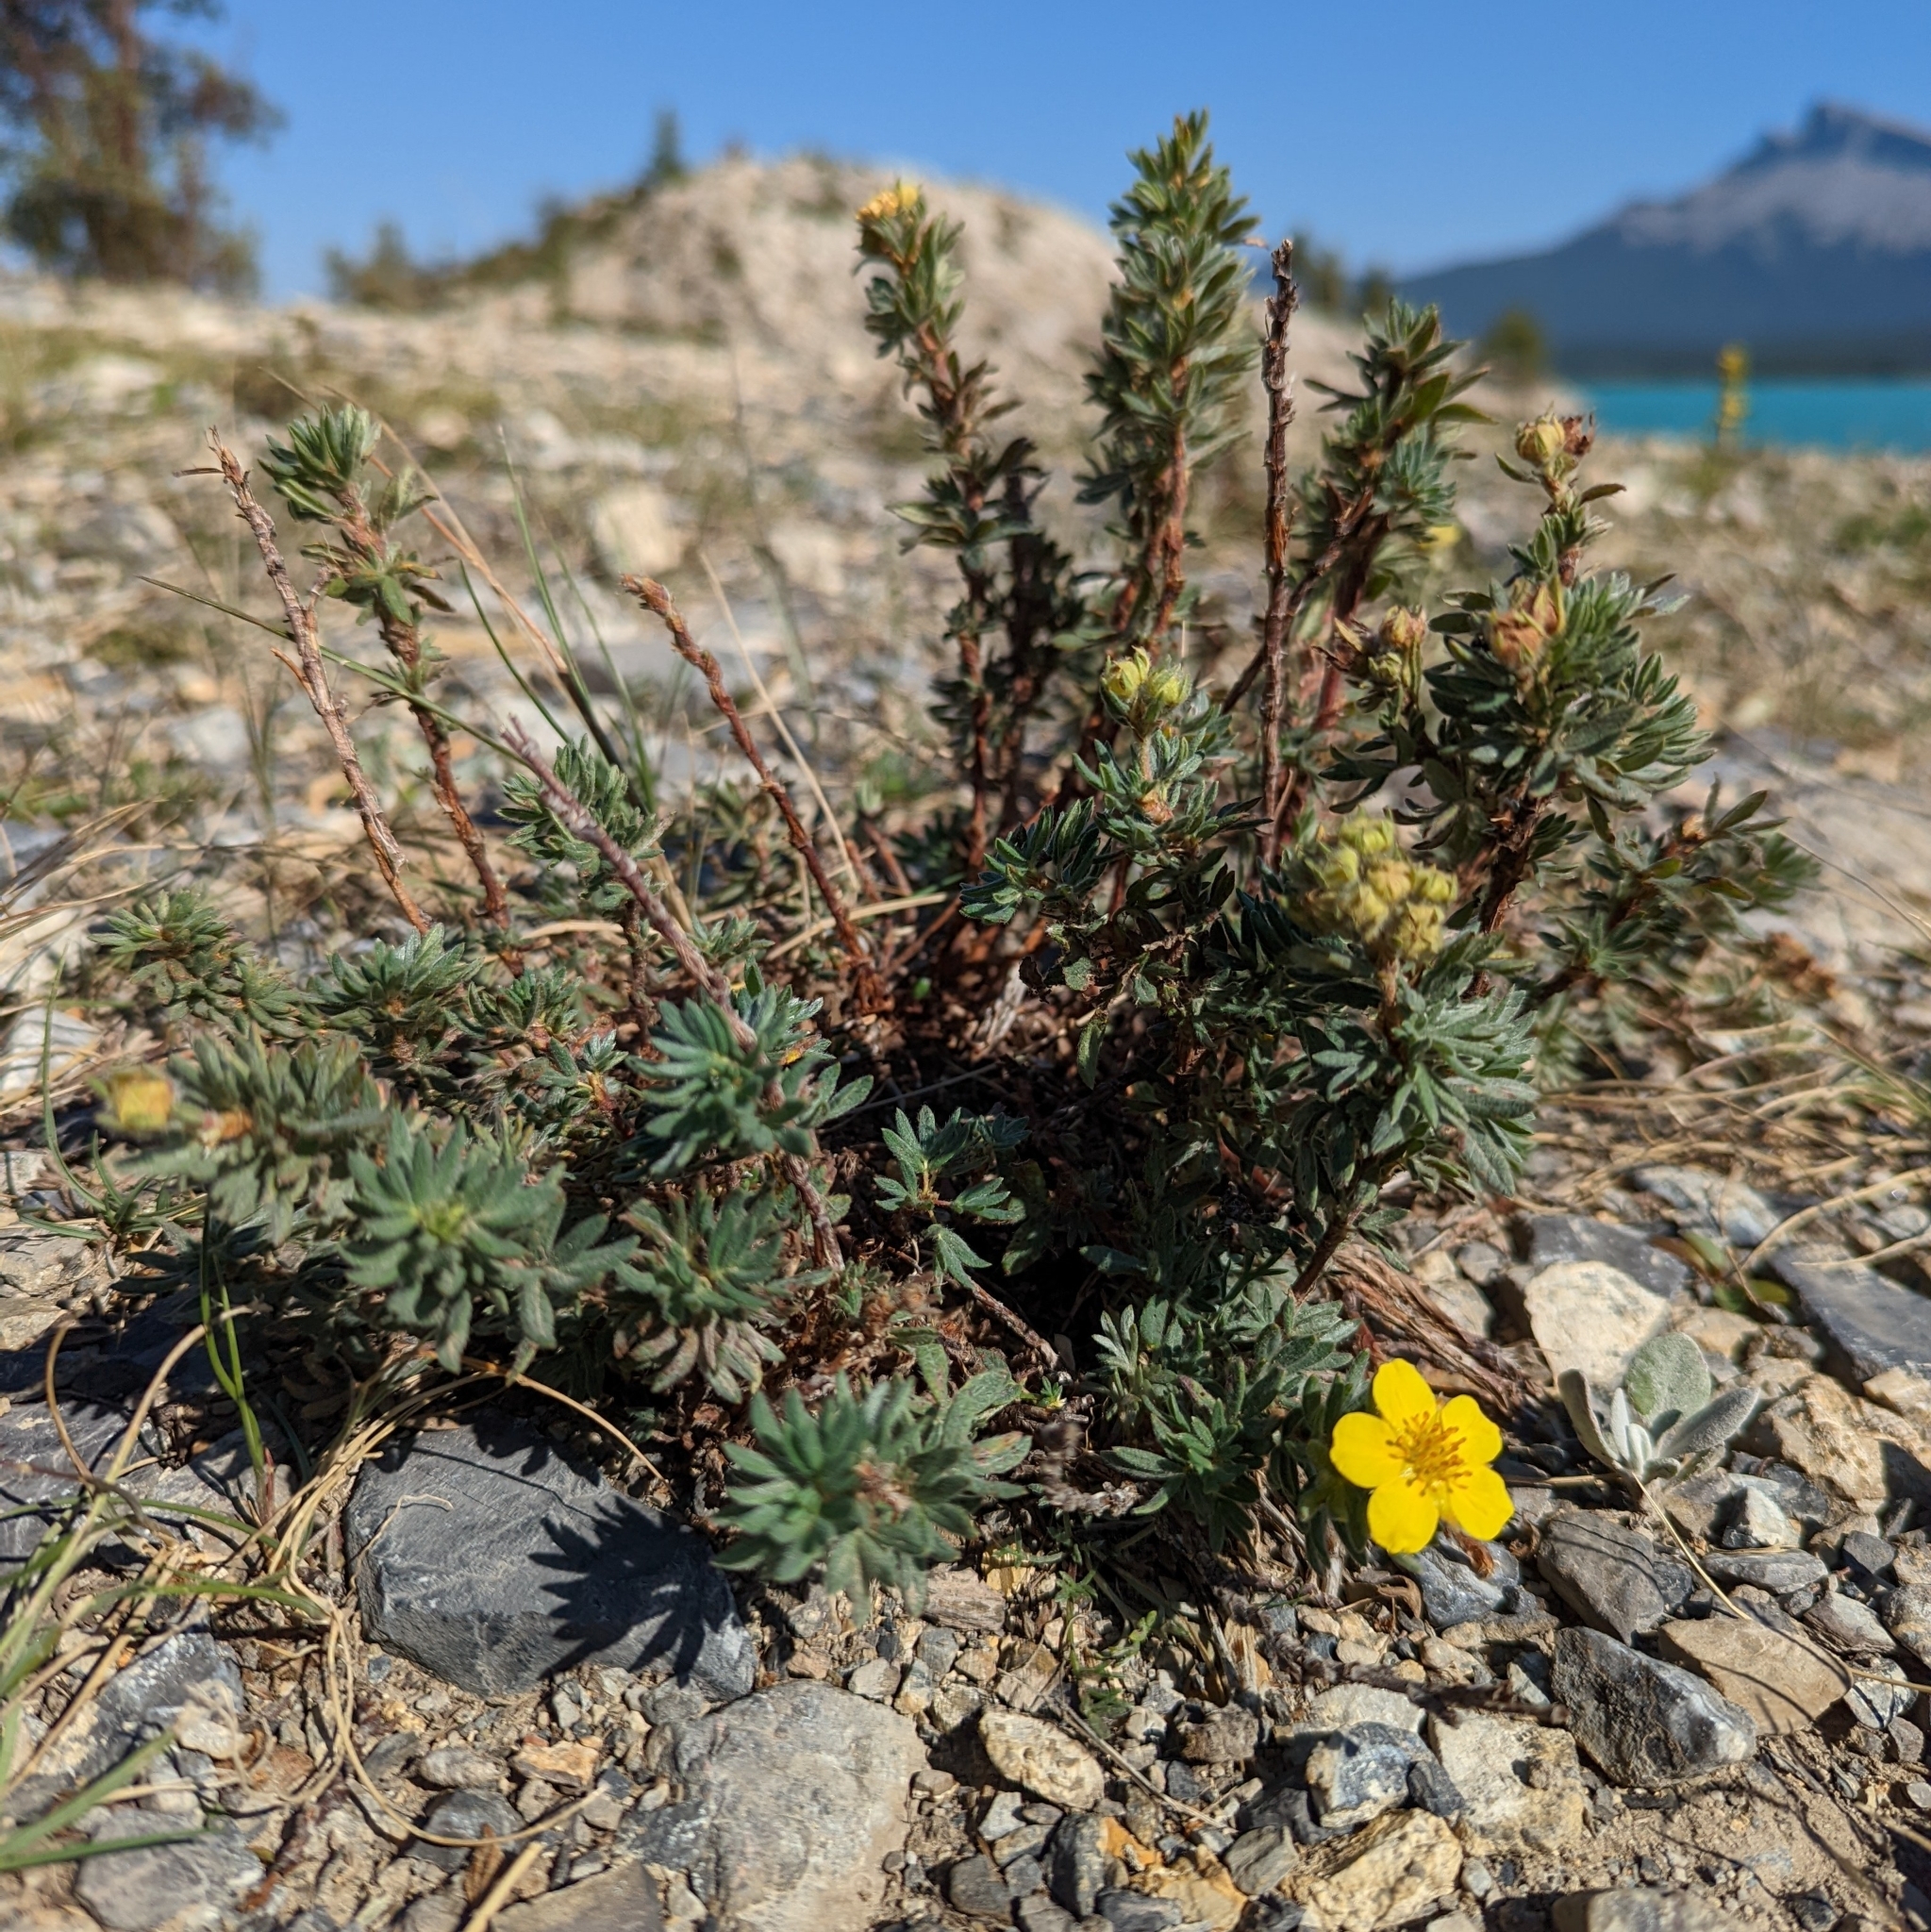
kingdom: Plantae
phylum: Tracheophyta
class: Magnoliopsida
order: Rosales
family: Rosaceae
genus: Dasiphora
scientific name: Dasiphora fruticosa
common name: Shrubby cinquefoil
